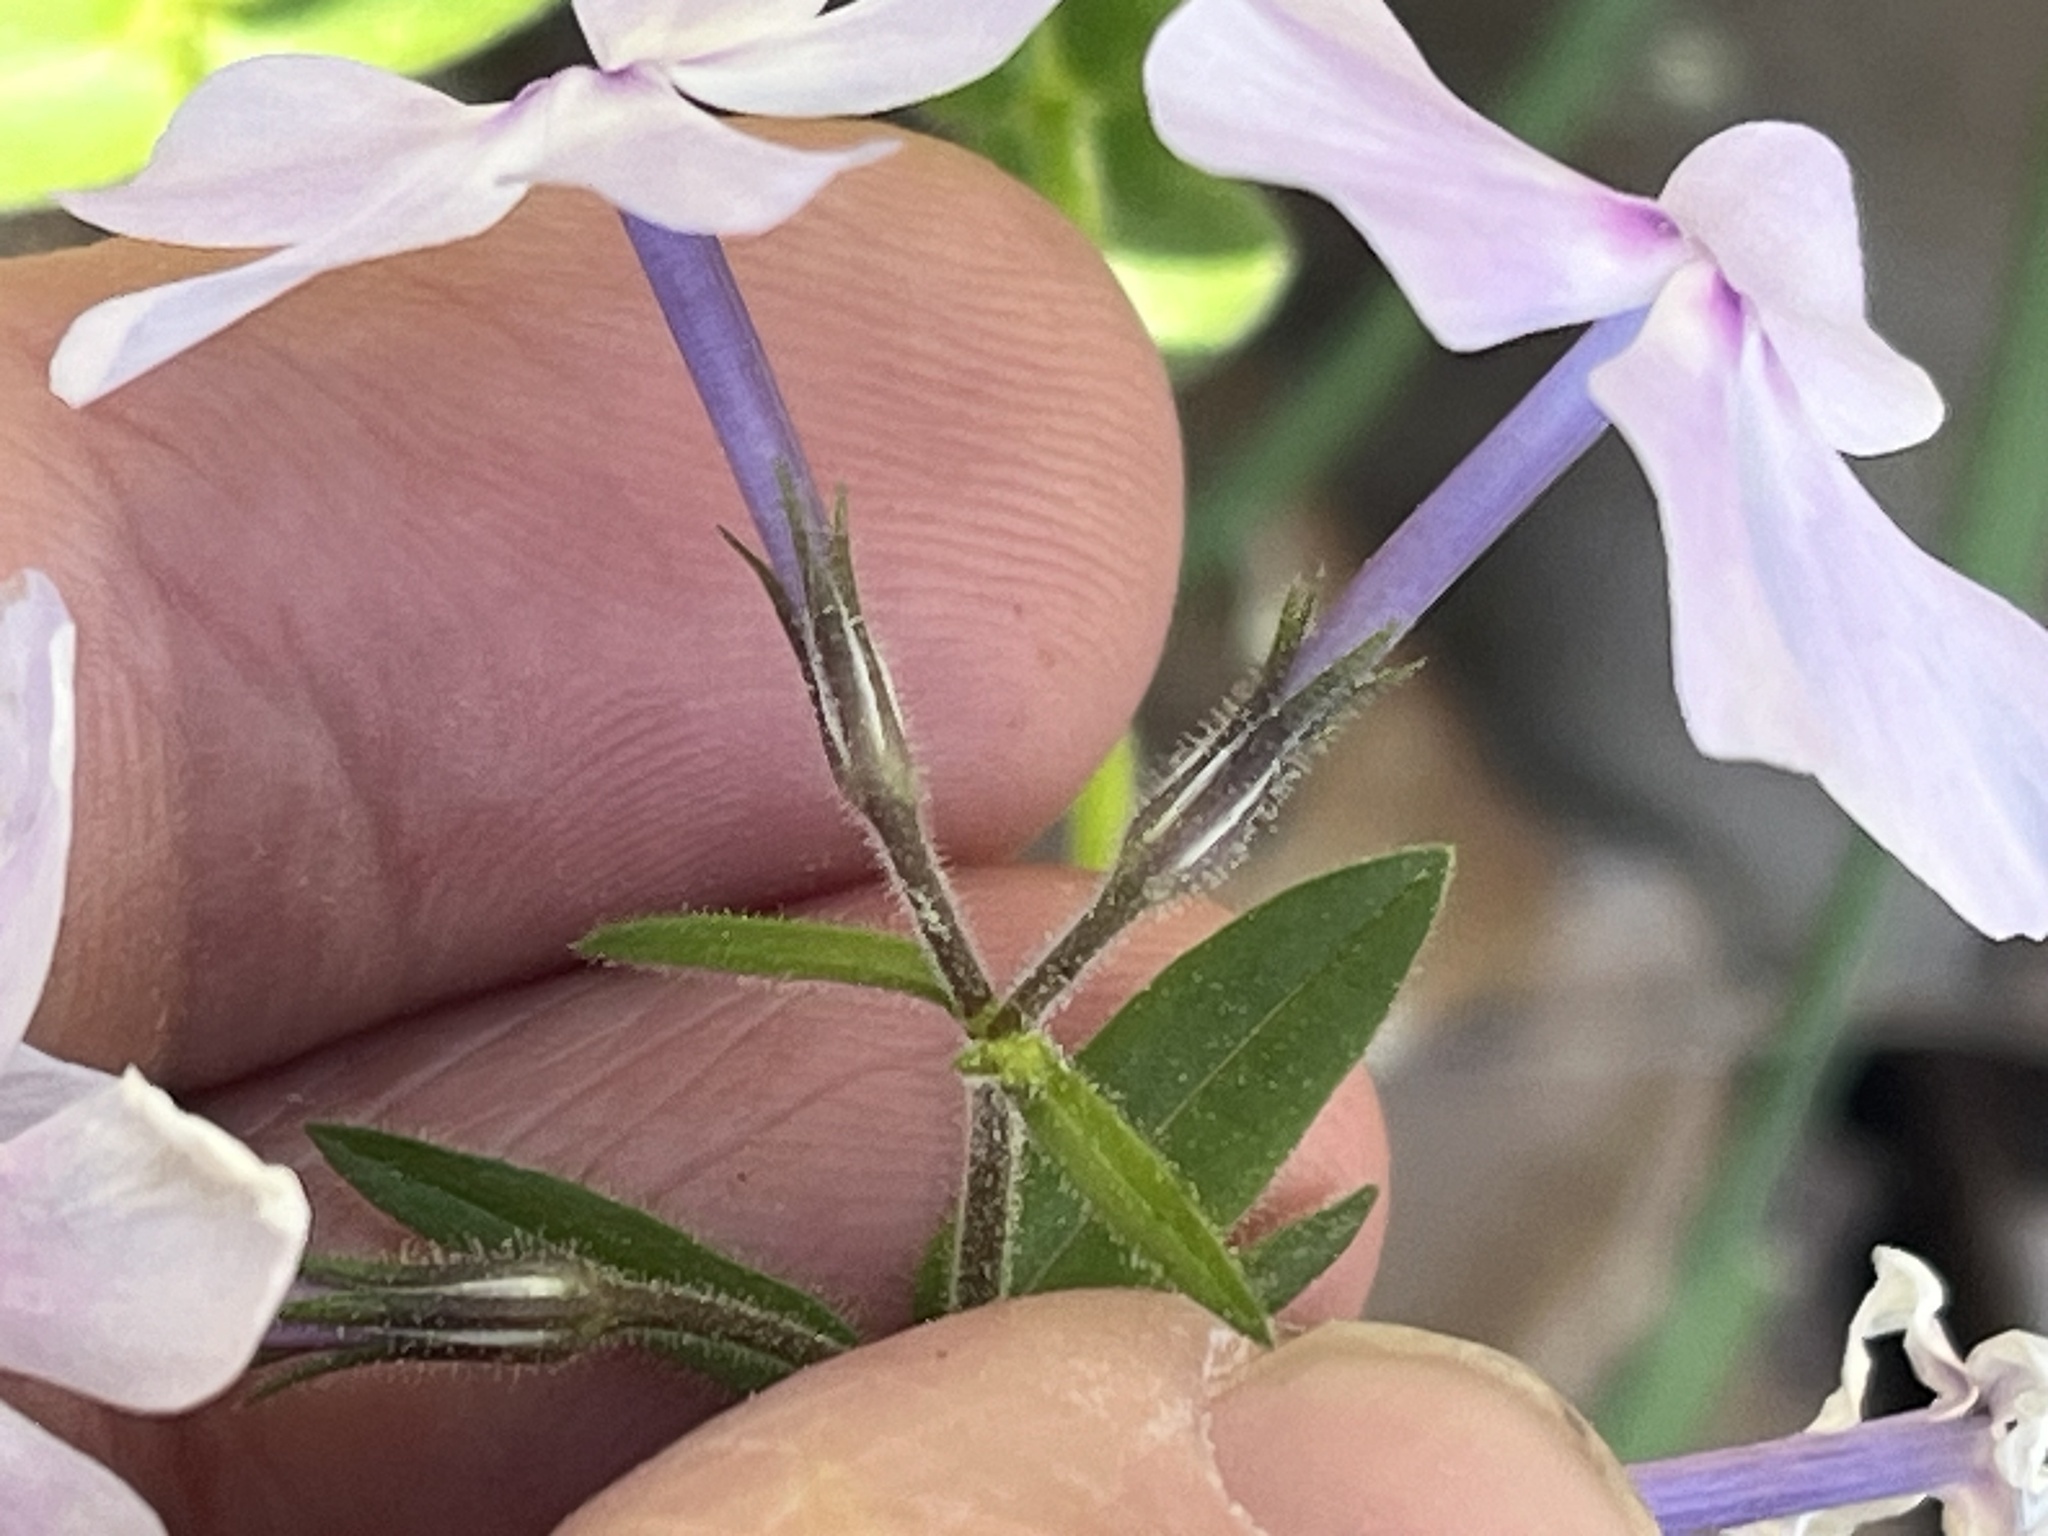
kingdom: Plantae
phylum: Tracheophyta
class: Magnoliopsida
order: Ericales
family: Polemoniaceae
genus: Phlox
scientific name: Phlox divaricata
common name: Blue phlox
